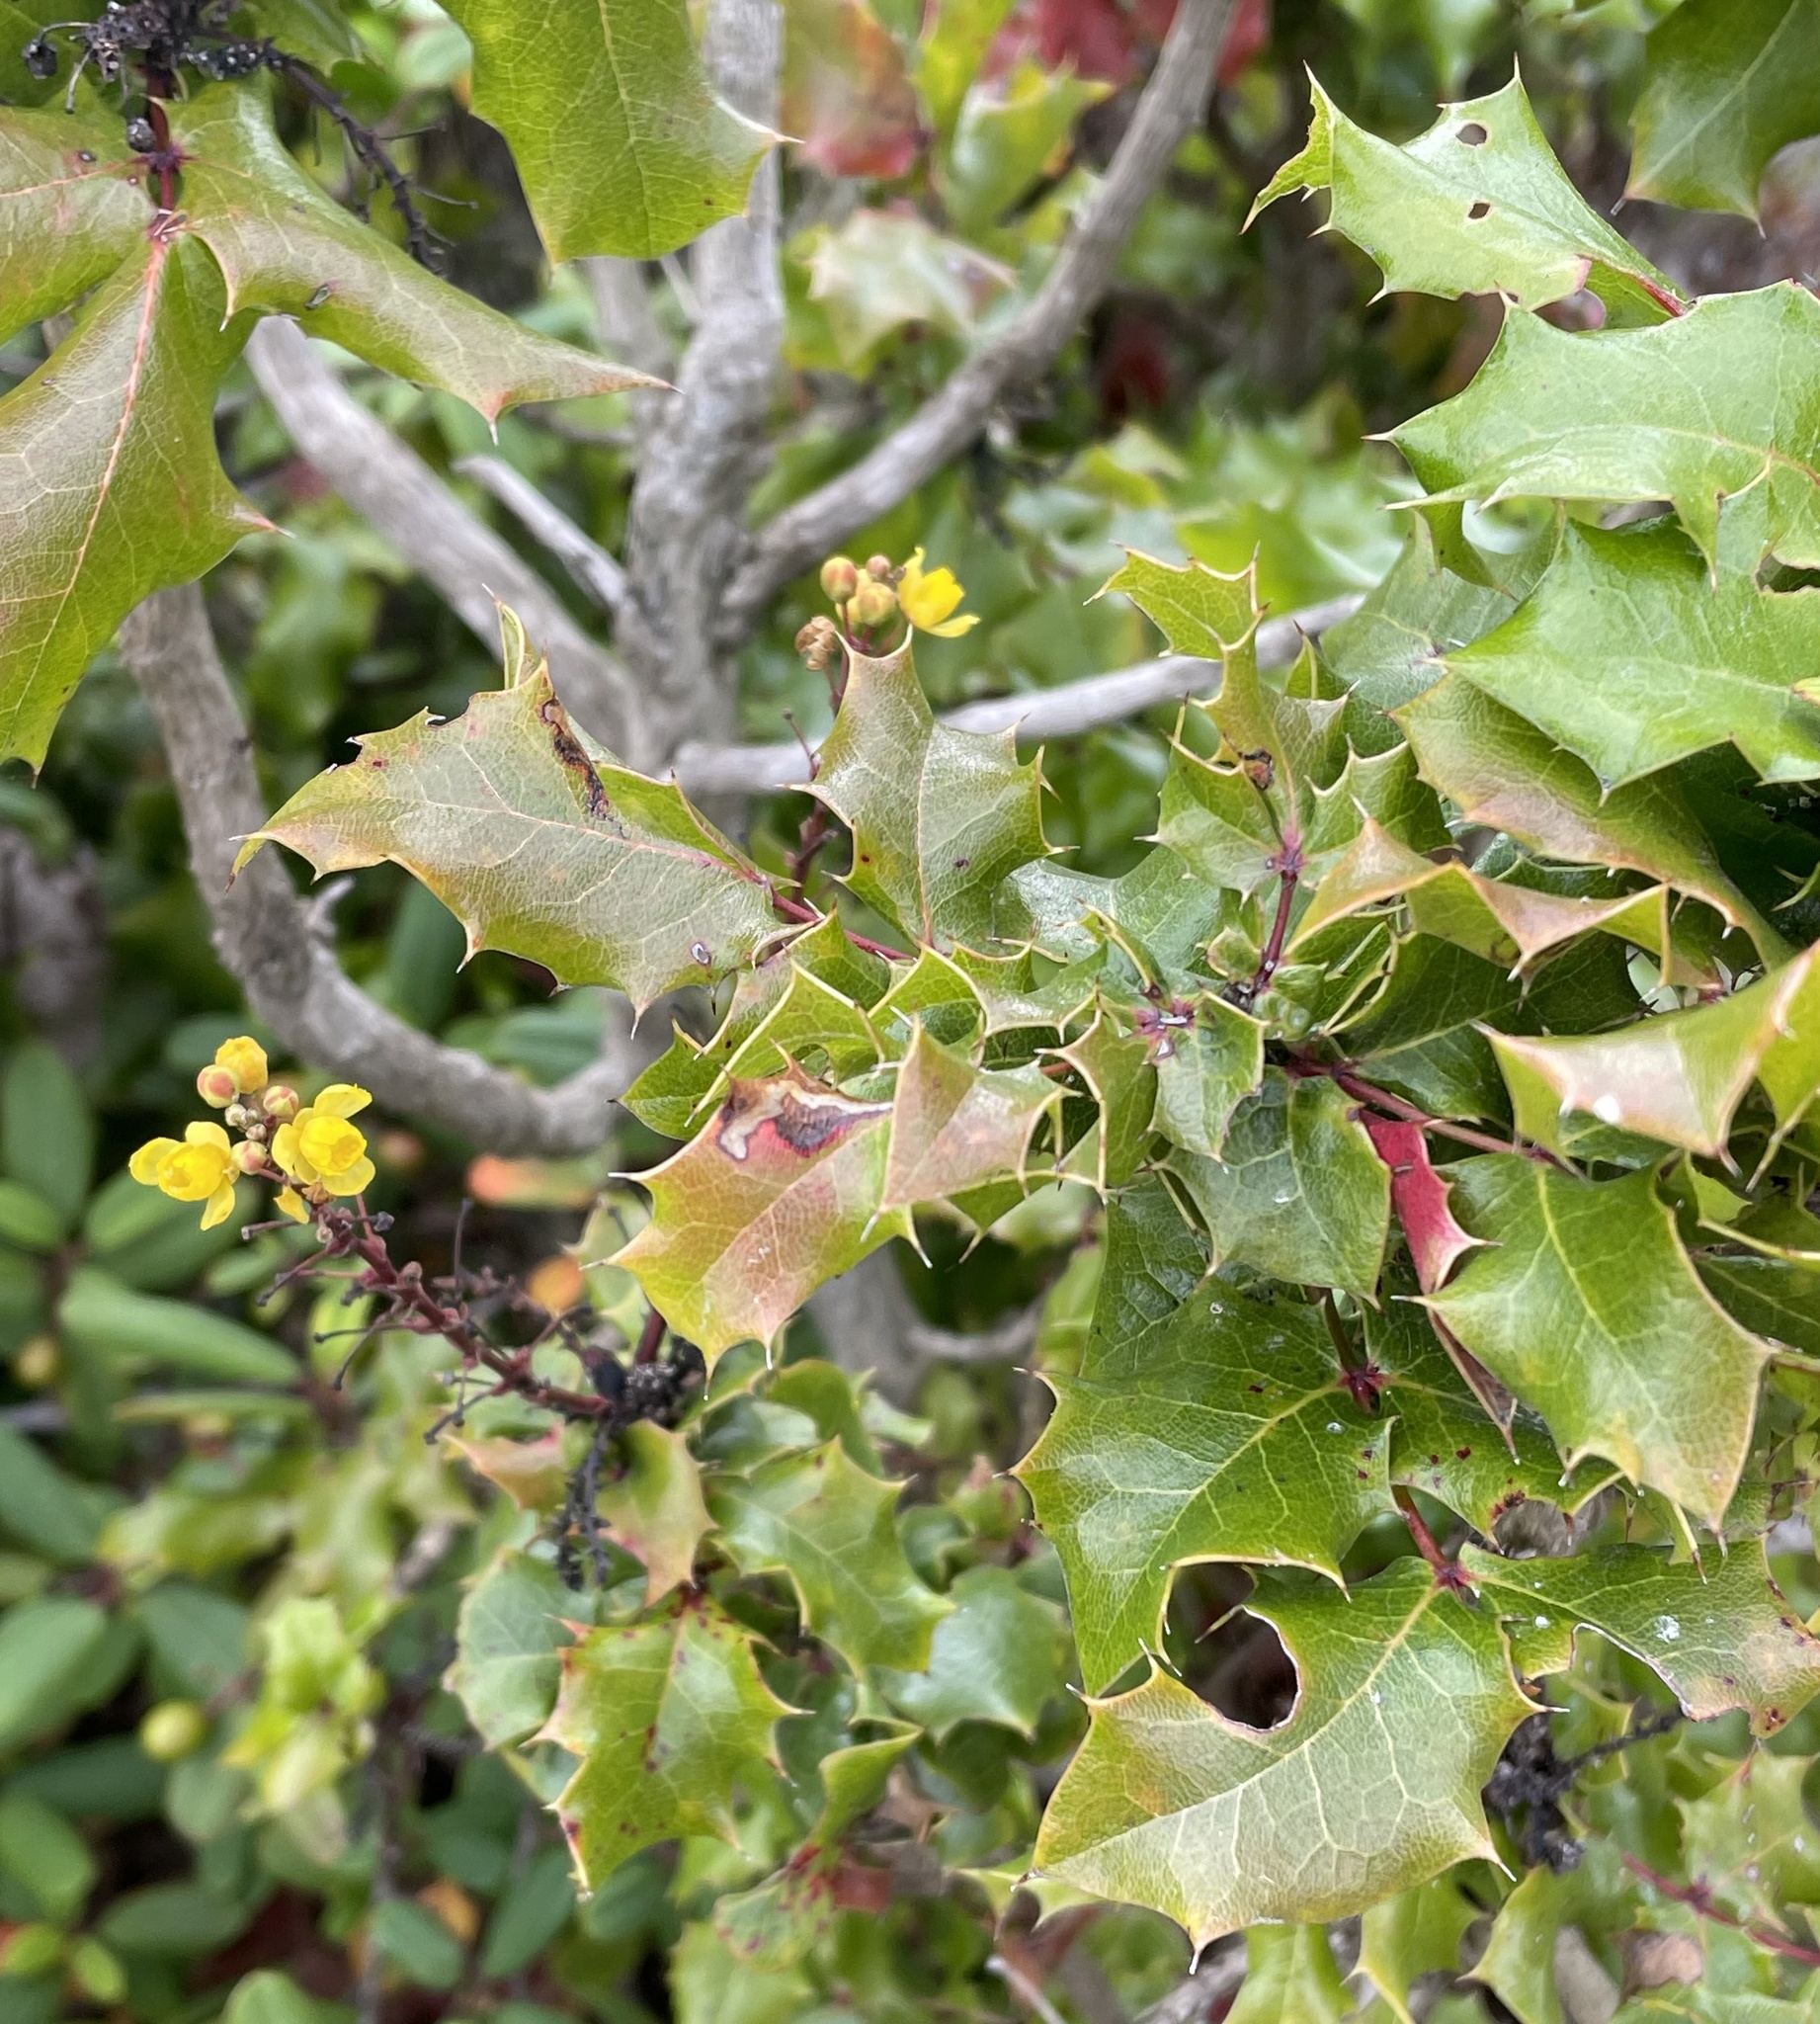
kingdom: Plantae
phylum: Tracheophyta
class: Magnoliopsida
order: Ranunculales
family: Berberidaceae
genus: Mahonia
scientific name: Mahonia
